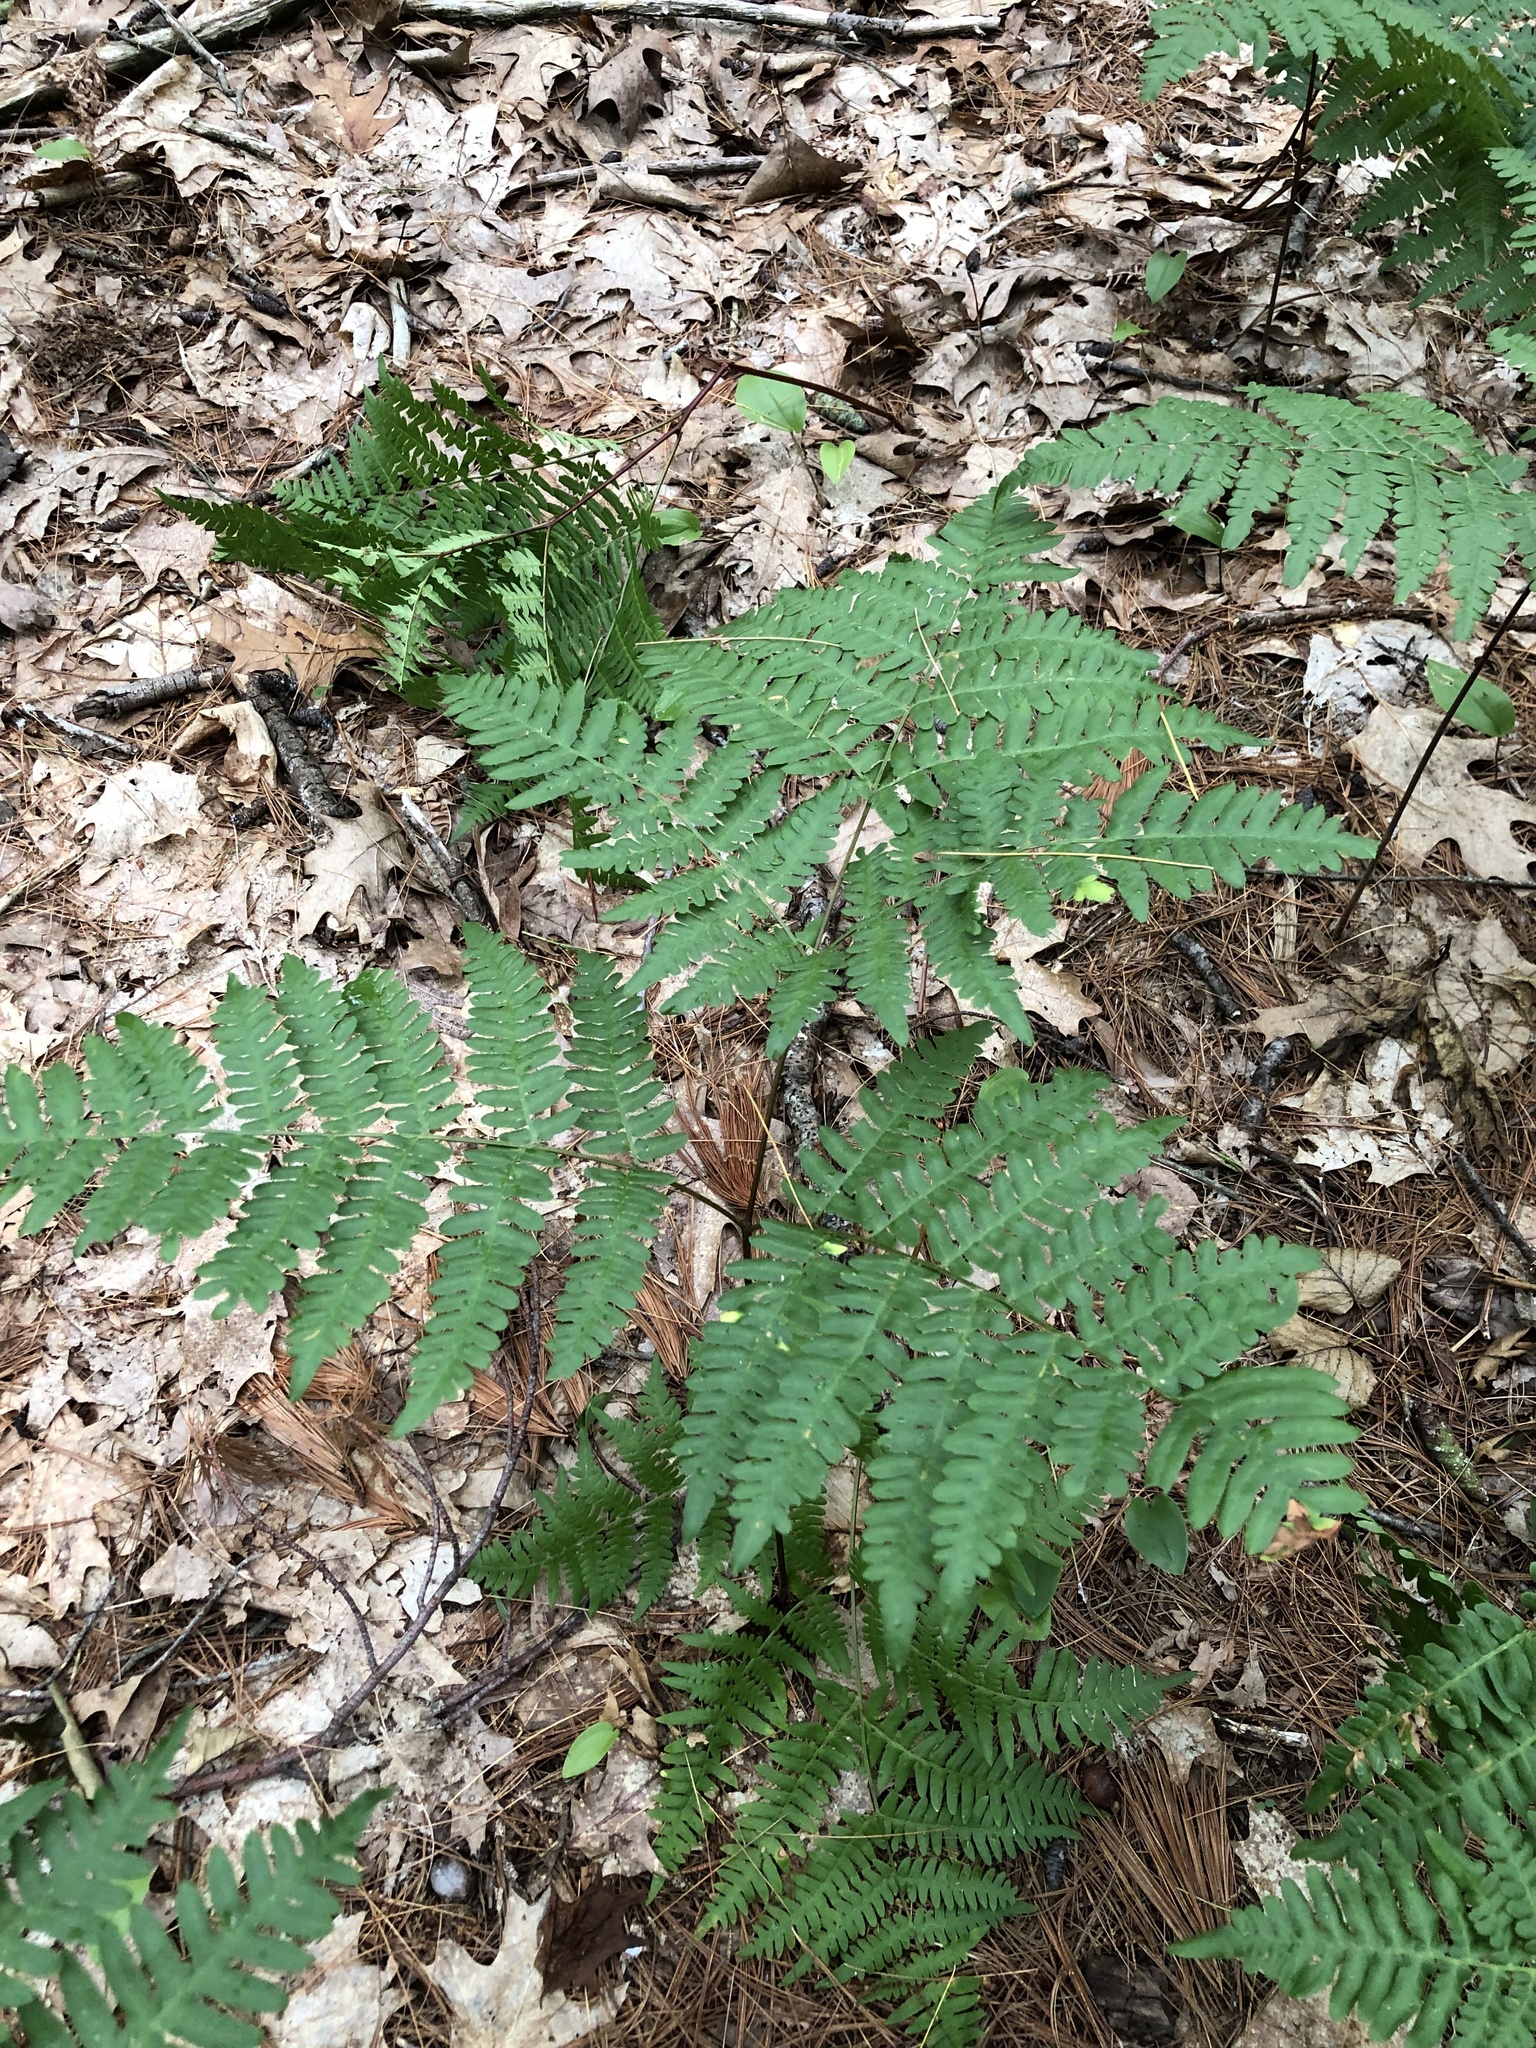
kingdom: Plantae
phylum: Tracheophyta
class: Polypodiopsida
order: Polypodiales
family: Dennstaedtiaceae
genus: Pteridium
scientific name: Pteridium aquilinum
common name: Bracken
